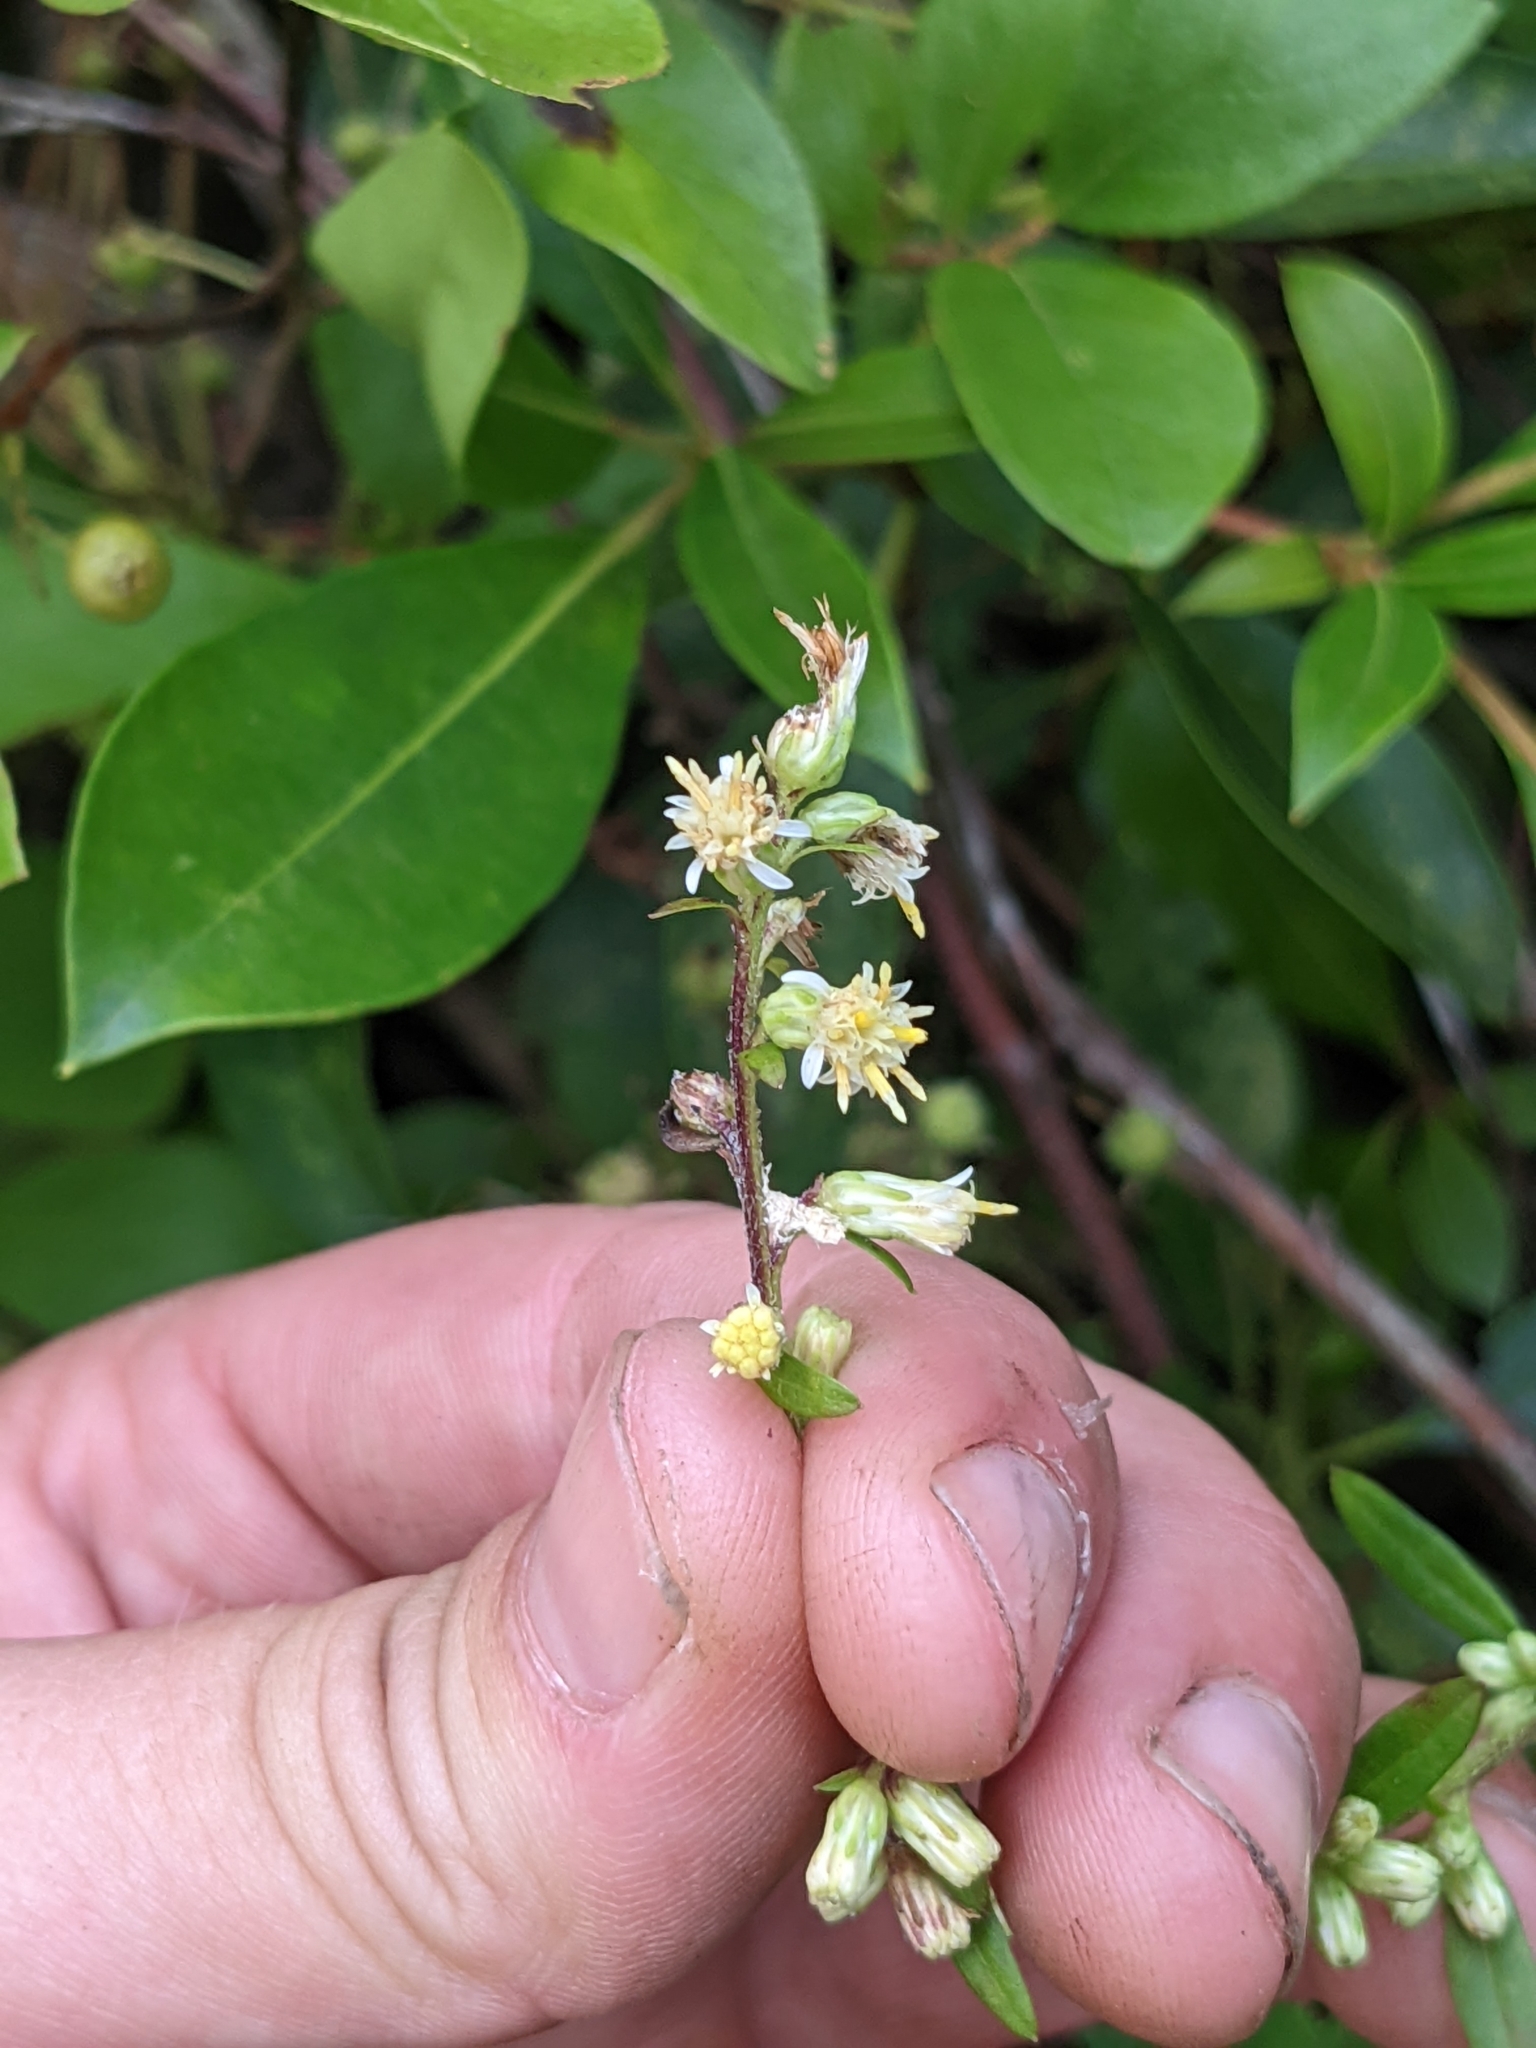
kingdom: Plantae
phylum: Tracheophyta
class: Magnoliopsida
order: Asterales
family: Asteraceae
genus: Solidago
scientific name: Solidago bicolor
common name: Silverrod
